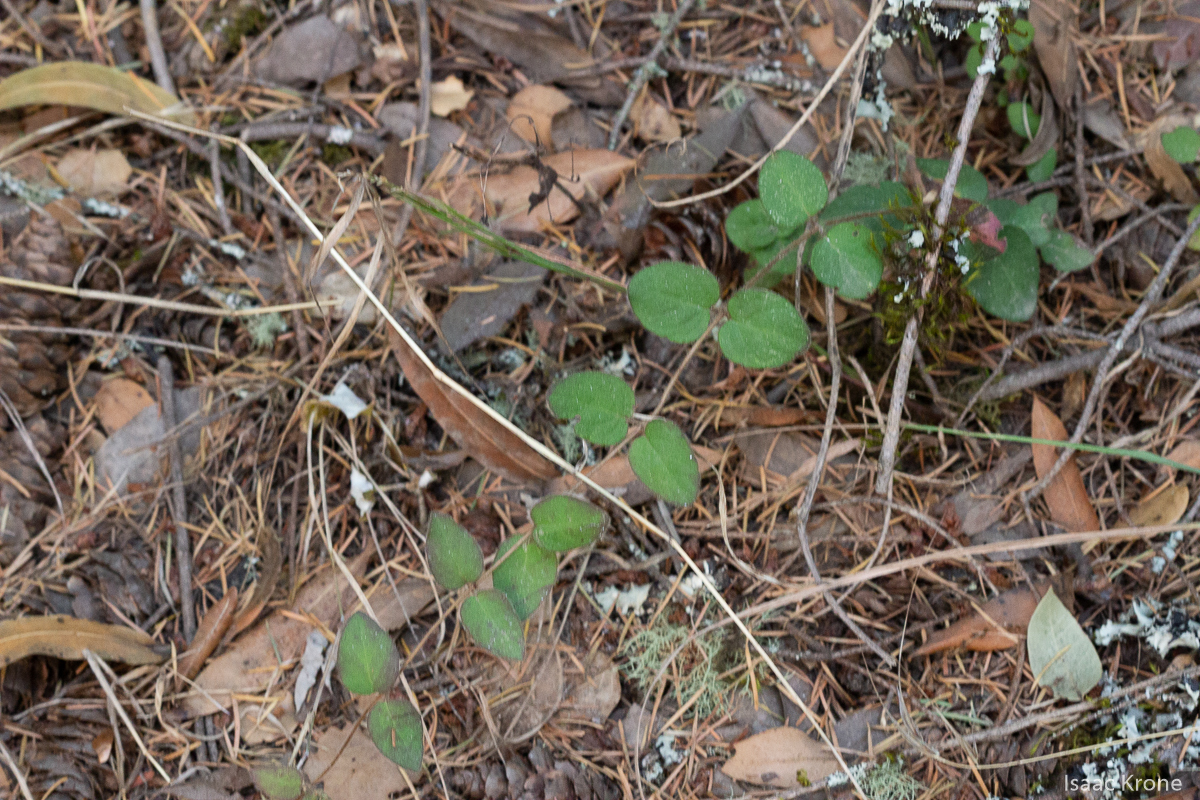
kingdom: Plantae
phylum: Tracheophyta
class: Magnoliopsida
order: Dipsacales
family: Caprifoliaceae
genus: Lonicera
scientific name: Lonicera hispidula
